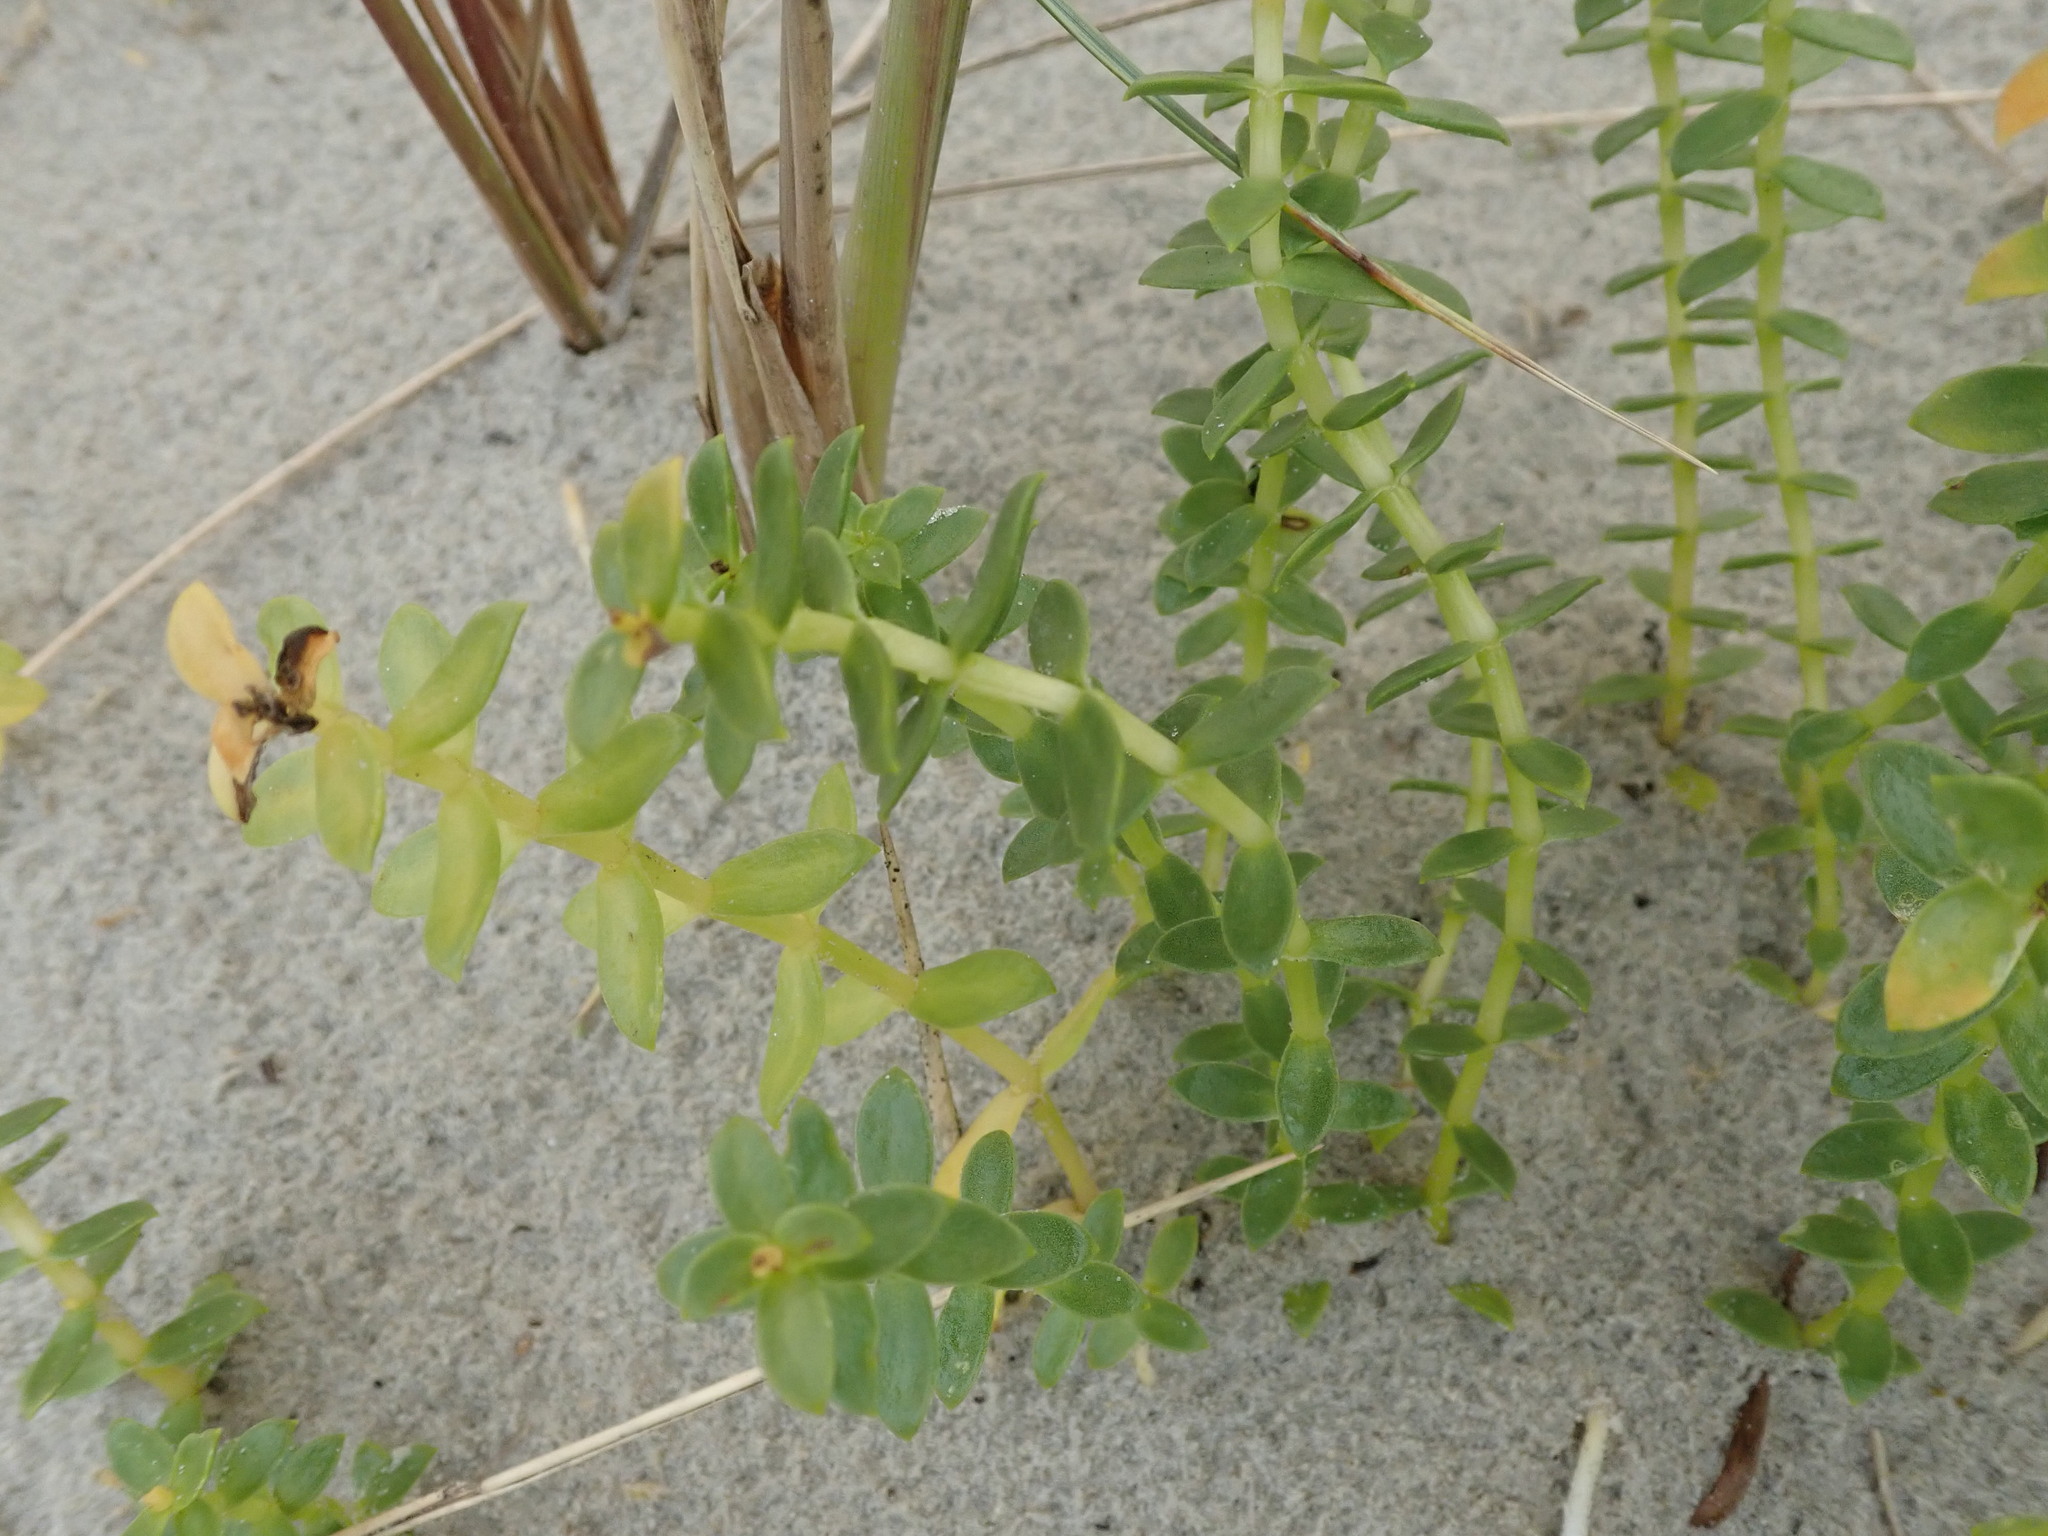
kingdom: Plantae
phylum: Tracheophyta
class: Magnoliopsida
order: Caryophyllales
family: Caryophyllaceae
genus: Honckenya
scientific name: Honckenya peploides
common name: Sea sandwort
